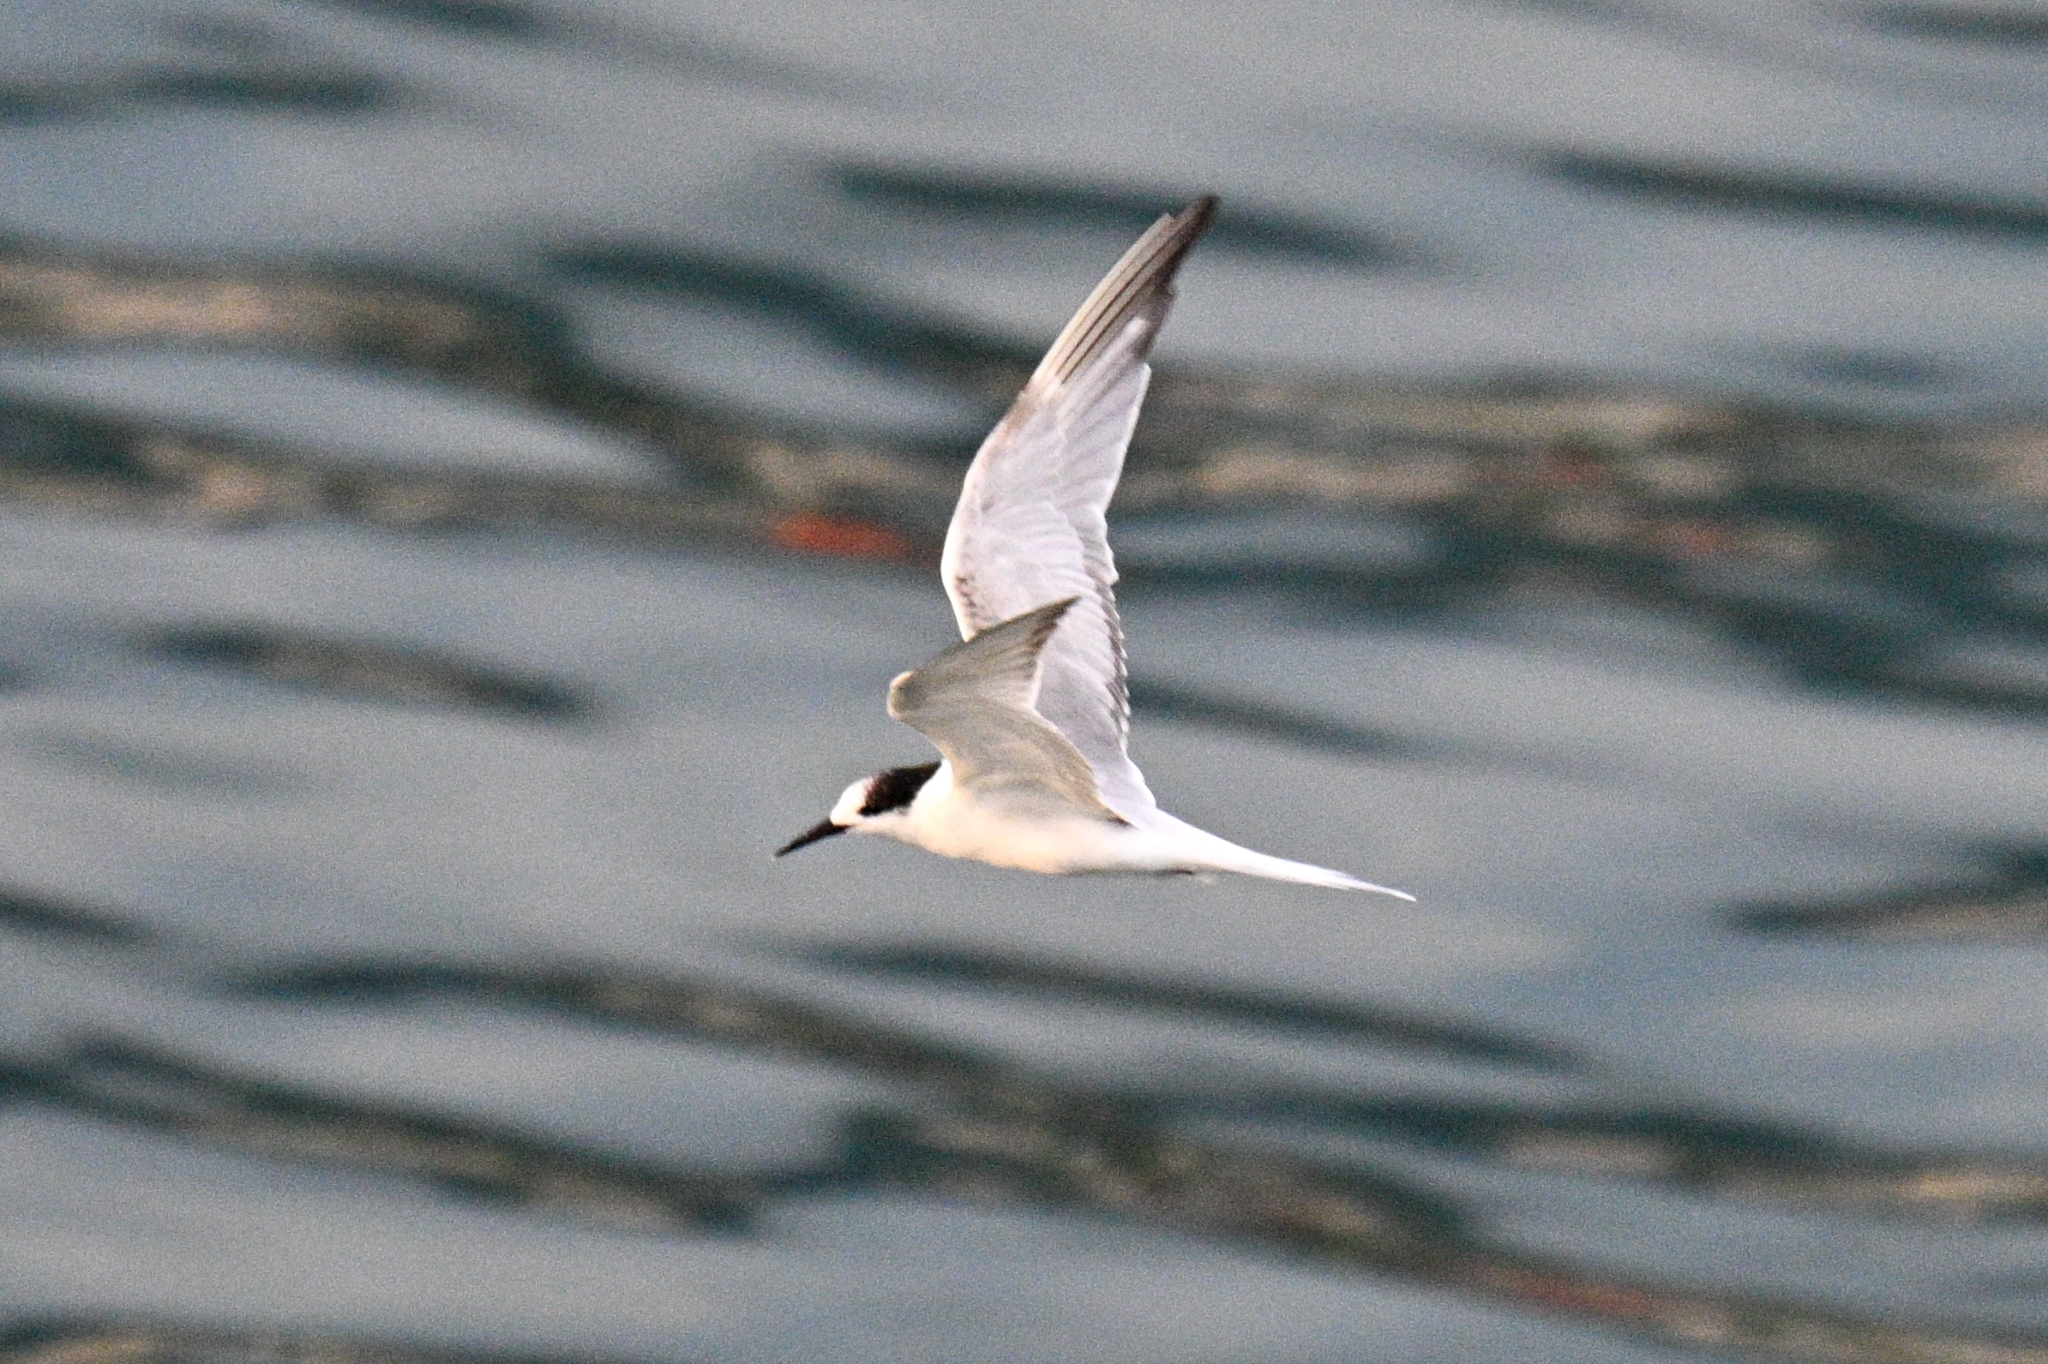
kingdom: Animalia
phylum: Chordata
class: Aves
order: Charadriiformes
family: Laridae
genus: Sterna
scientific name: Sterna hirundo
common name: Common tern
